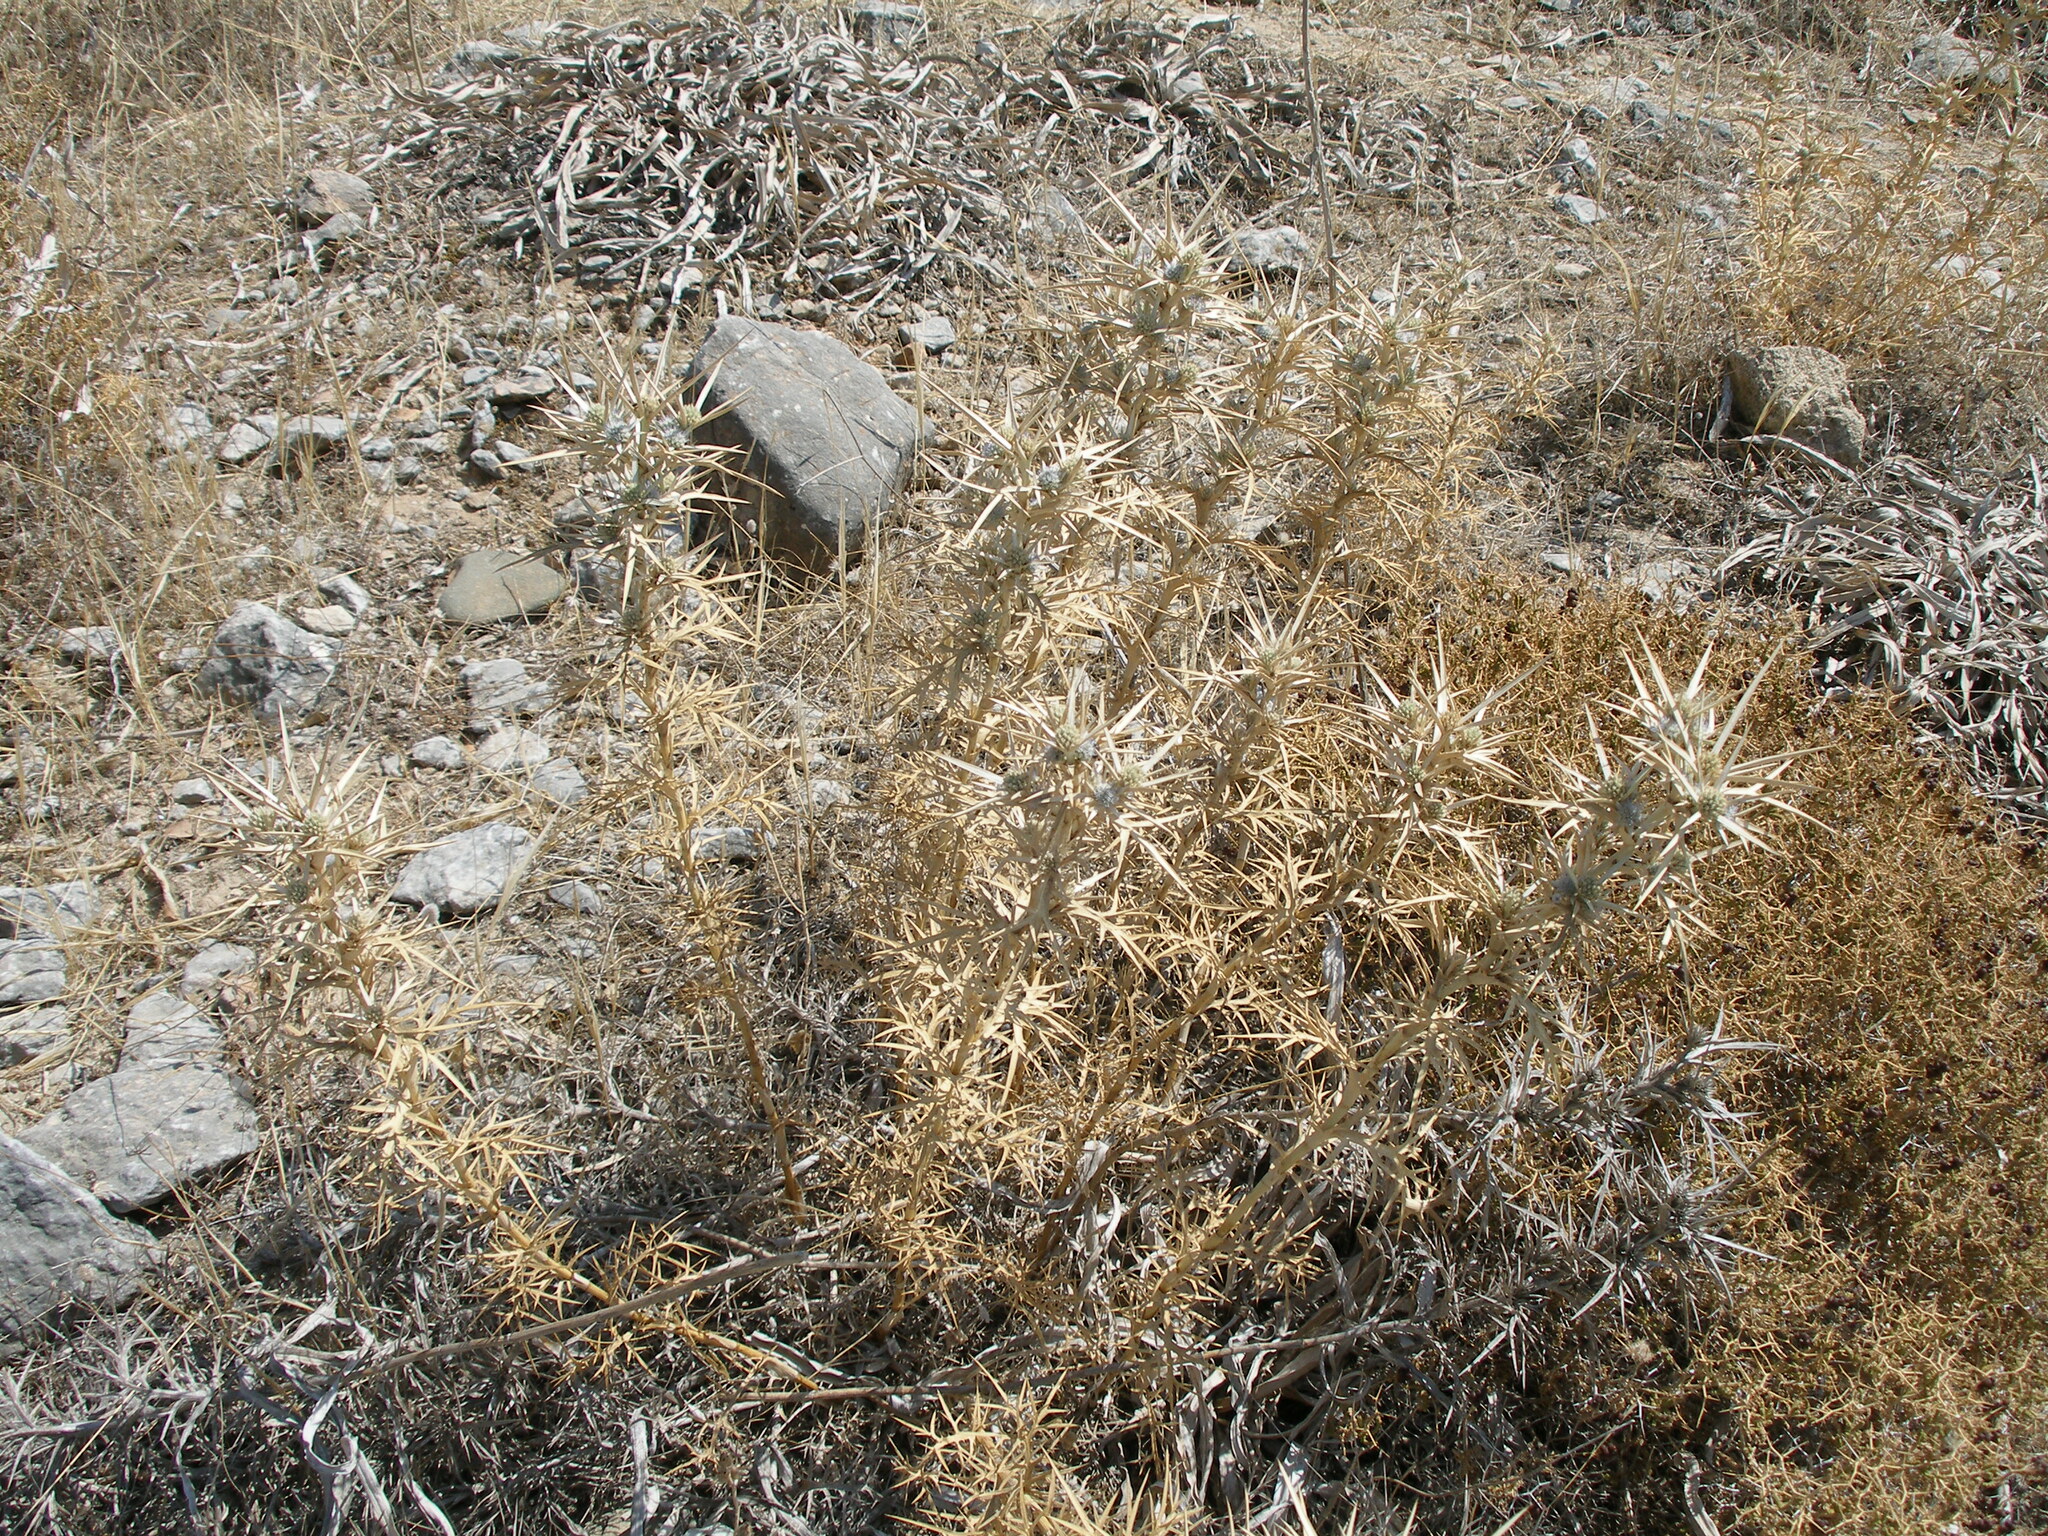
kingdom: Plantae
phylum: Tracheophyta
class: Magnoliopsida
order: Apiales
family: Apiaceae
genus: Eryngium
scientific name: Eryngium glomeratum
